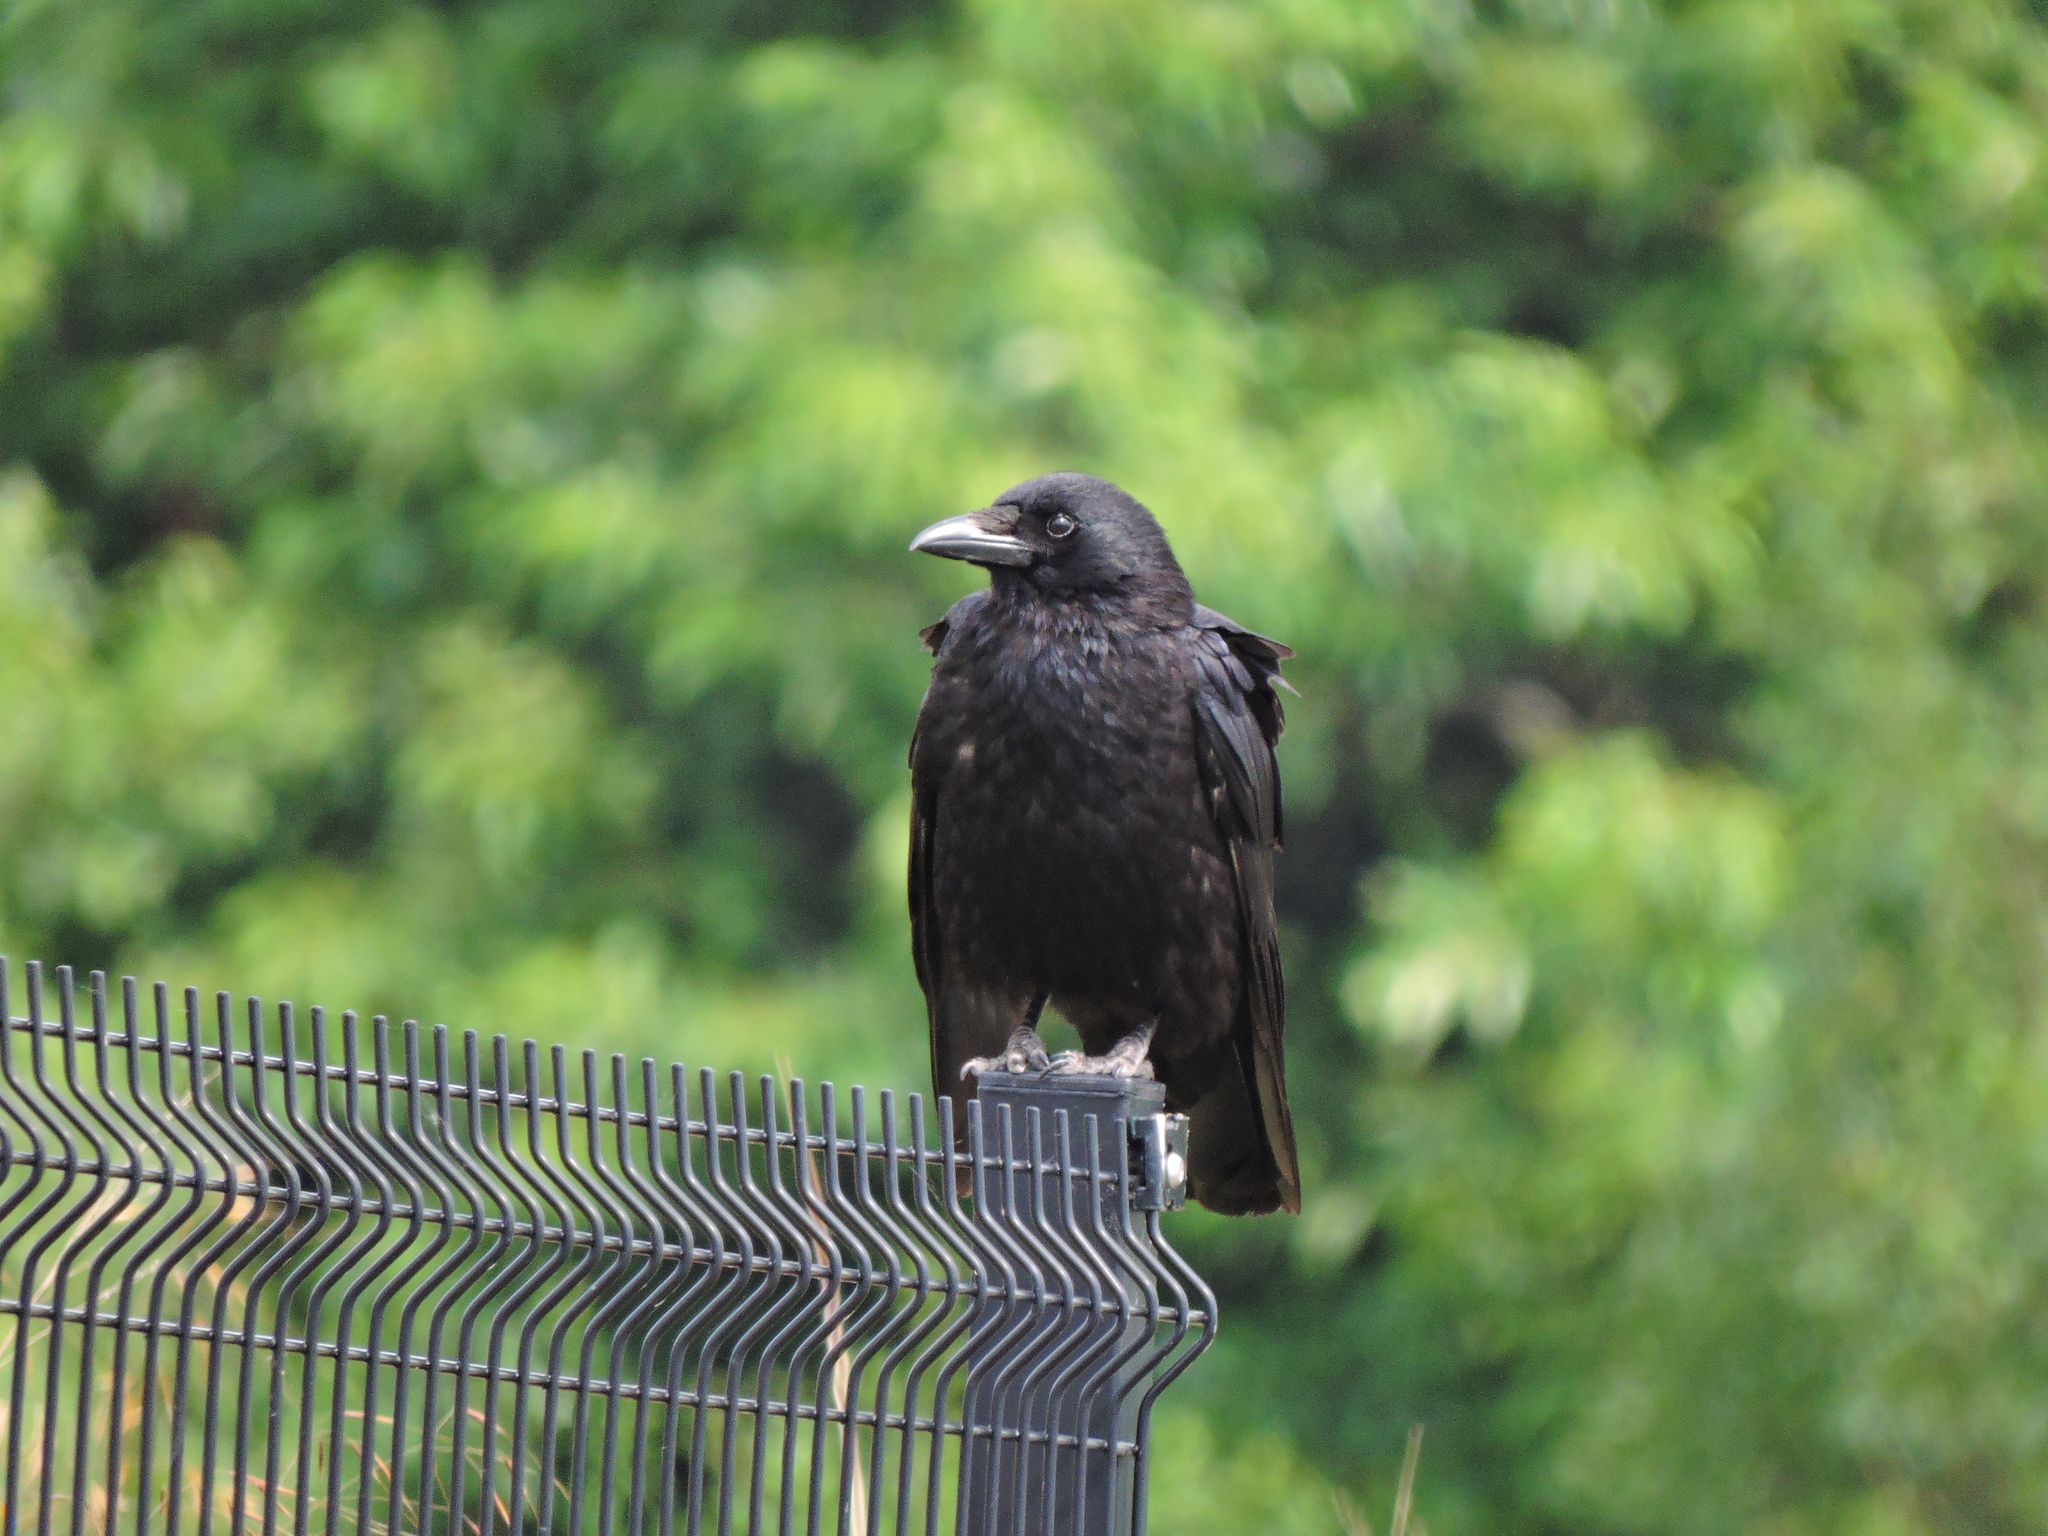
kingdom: Animalia
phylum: Chordata
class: Aves
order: Passeriformes
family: Corvidae
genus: Corvus
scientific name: Corvus corone
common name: Carrion crow
